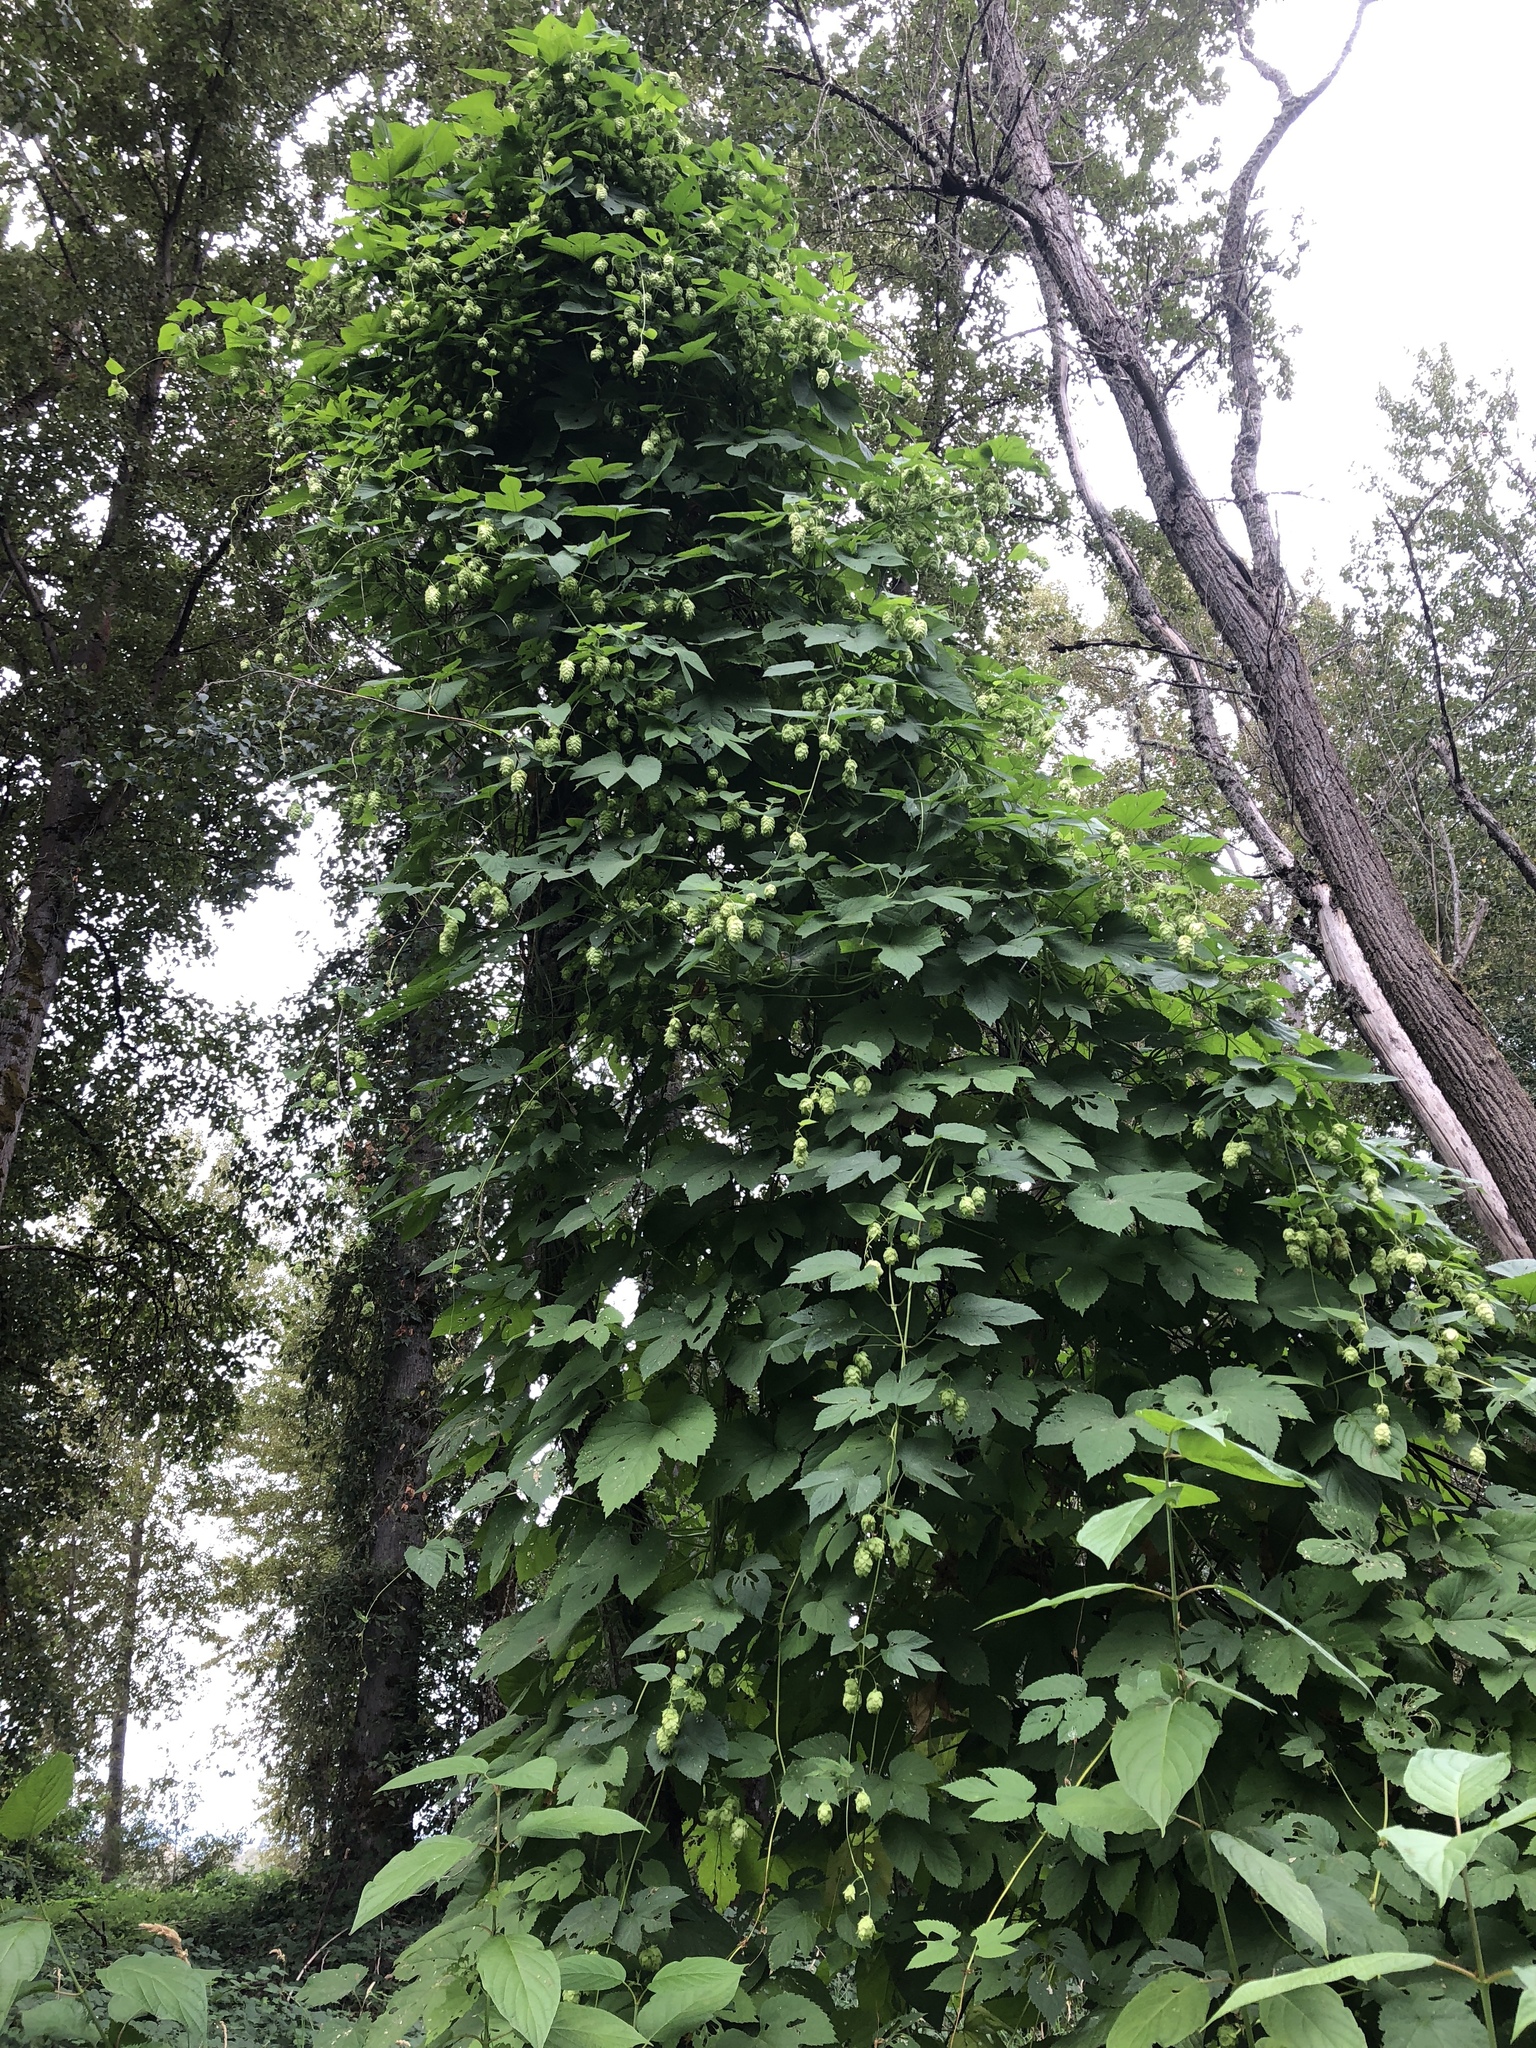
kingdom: Plantae
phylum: Tracheophyta
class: Magnoliopsida
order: Rosales
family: Cannabaceae
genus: Humulus
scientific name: Humulus lupulus
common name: Hop
